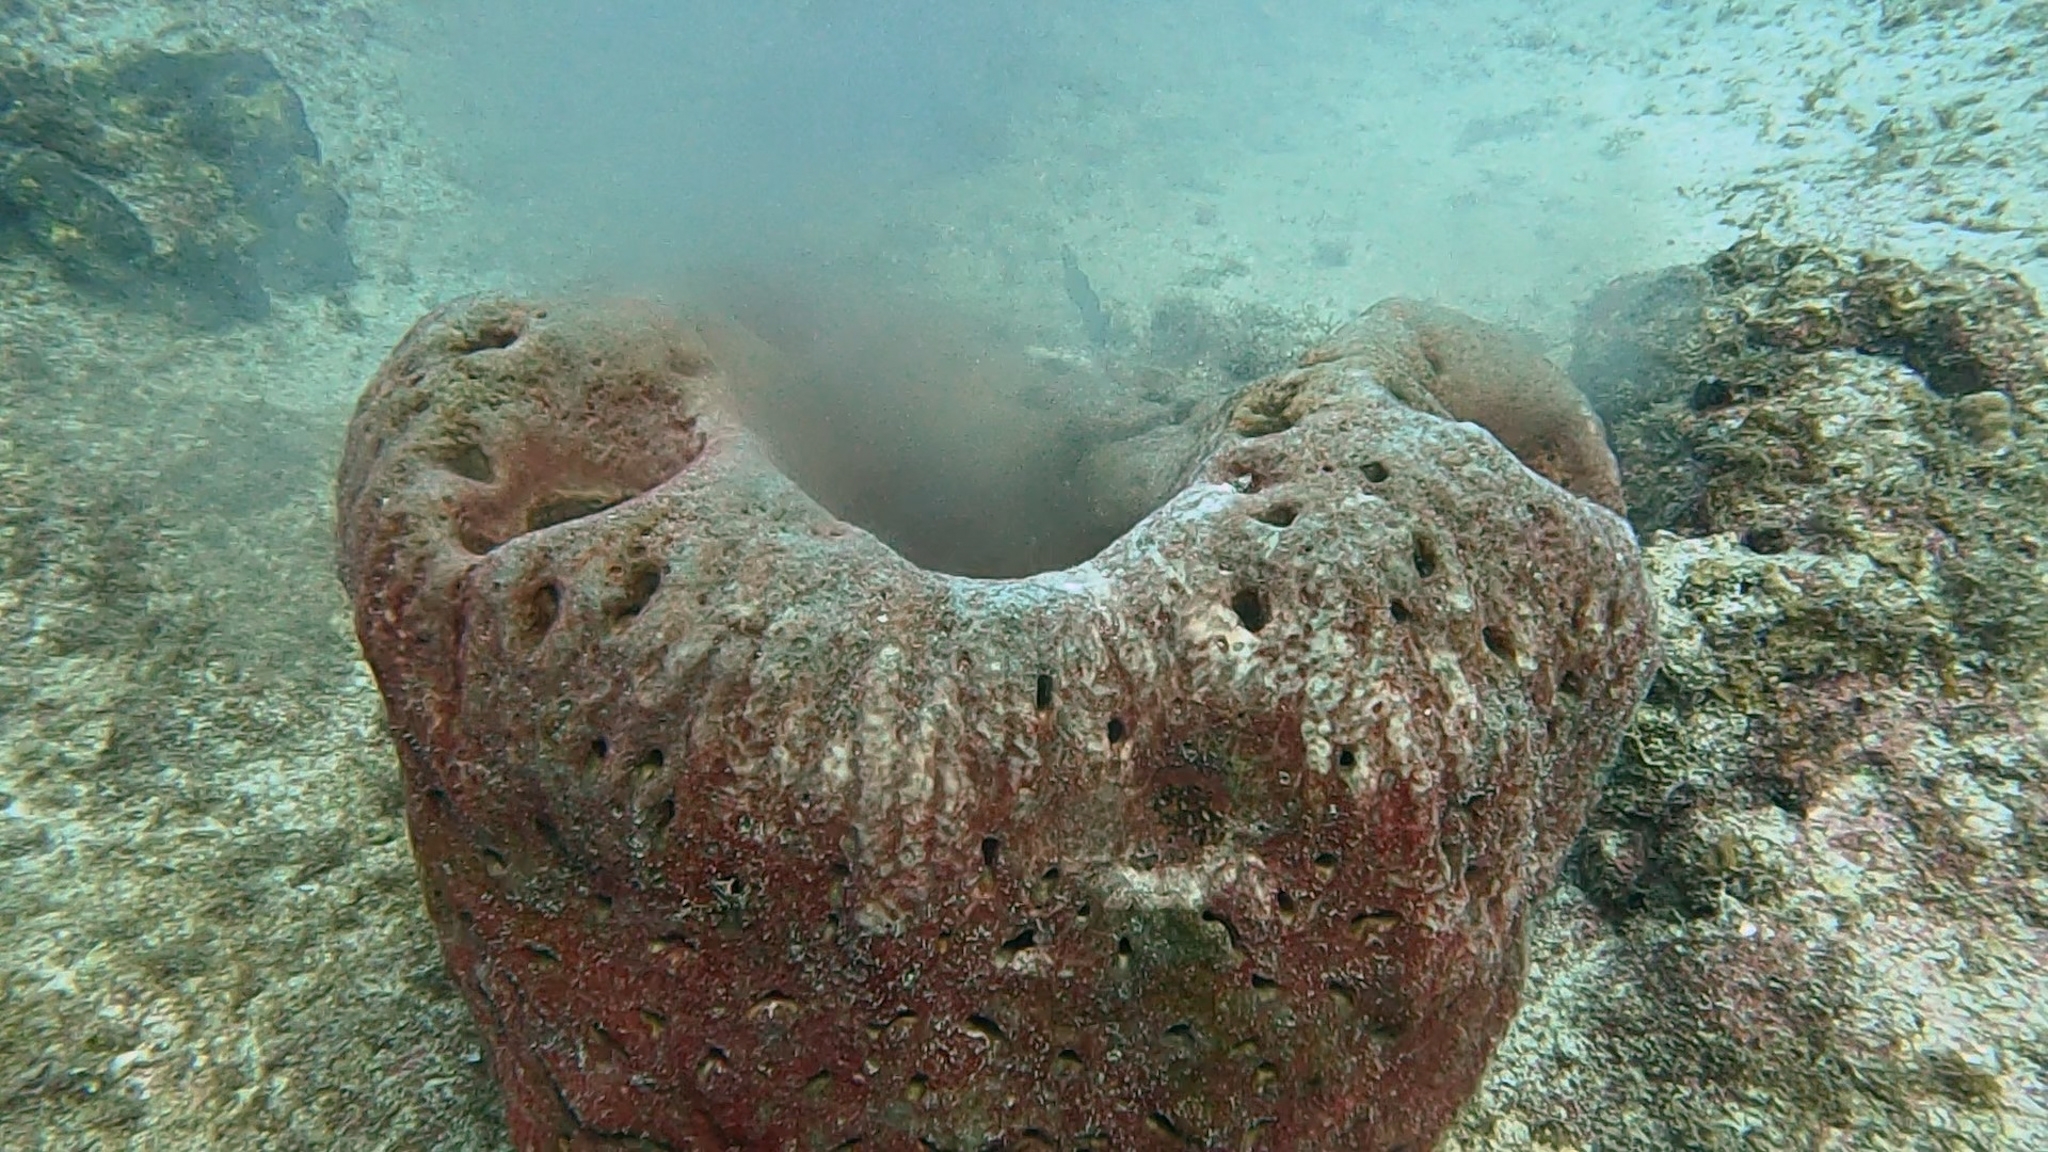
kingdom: Animalia
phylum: Porifera
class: Demospongiae
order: Tetractinellida
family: Geodiidae
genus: Geodia
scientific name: Geodia neptuni
